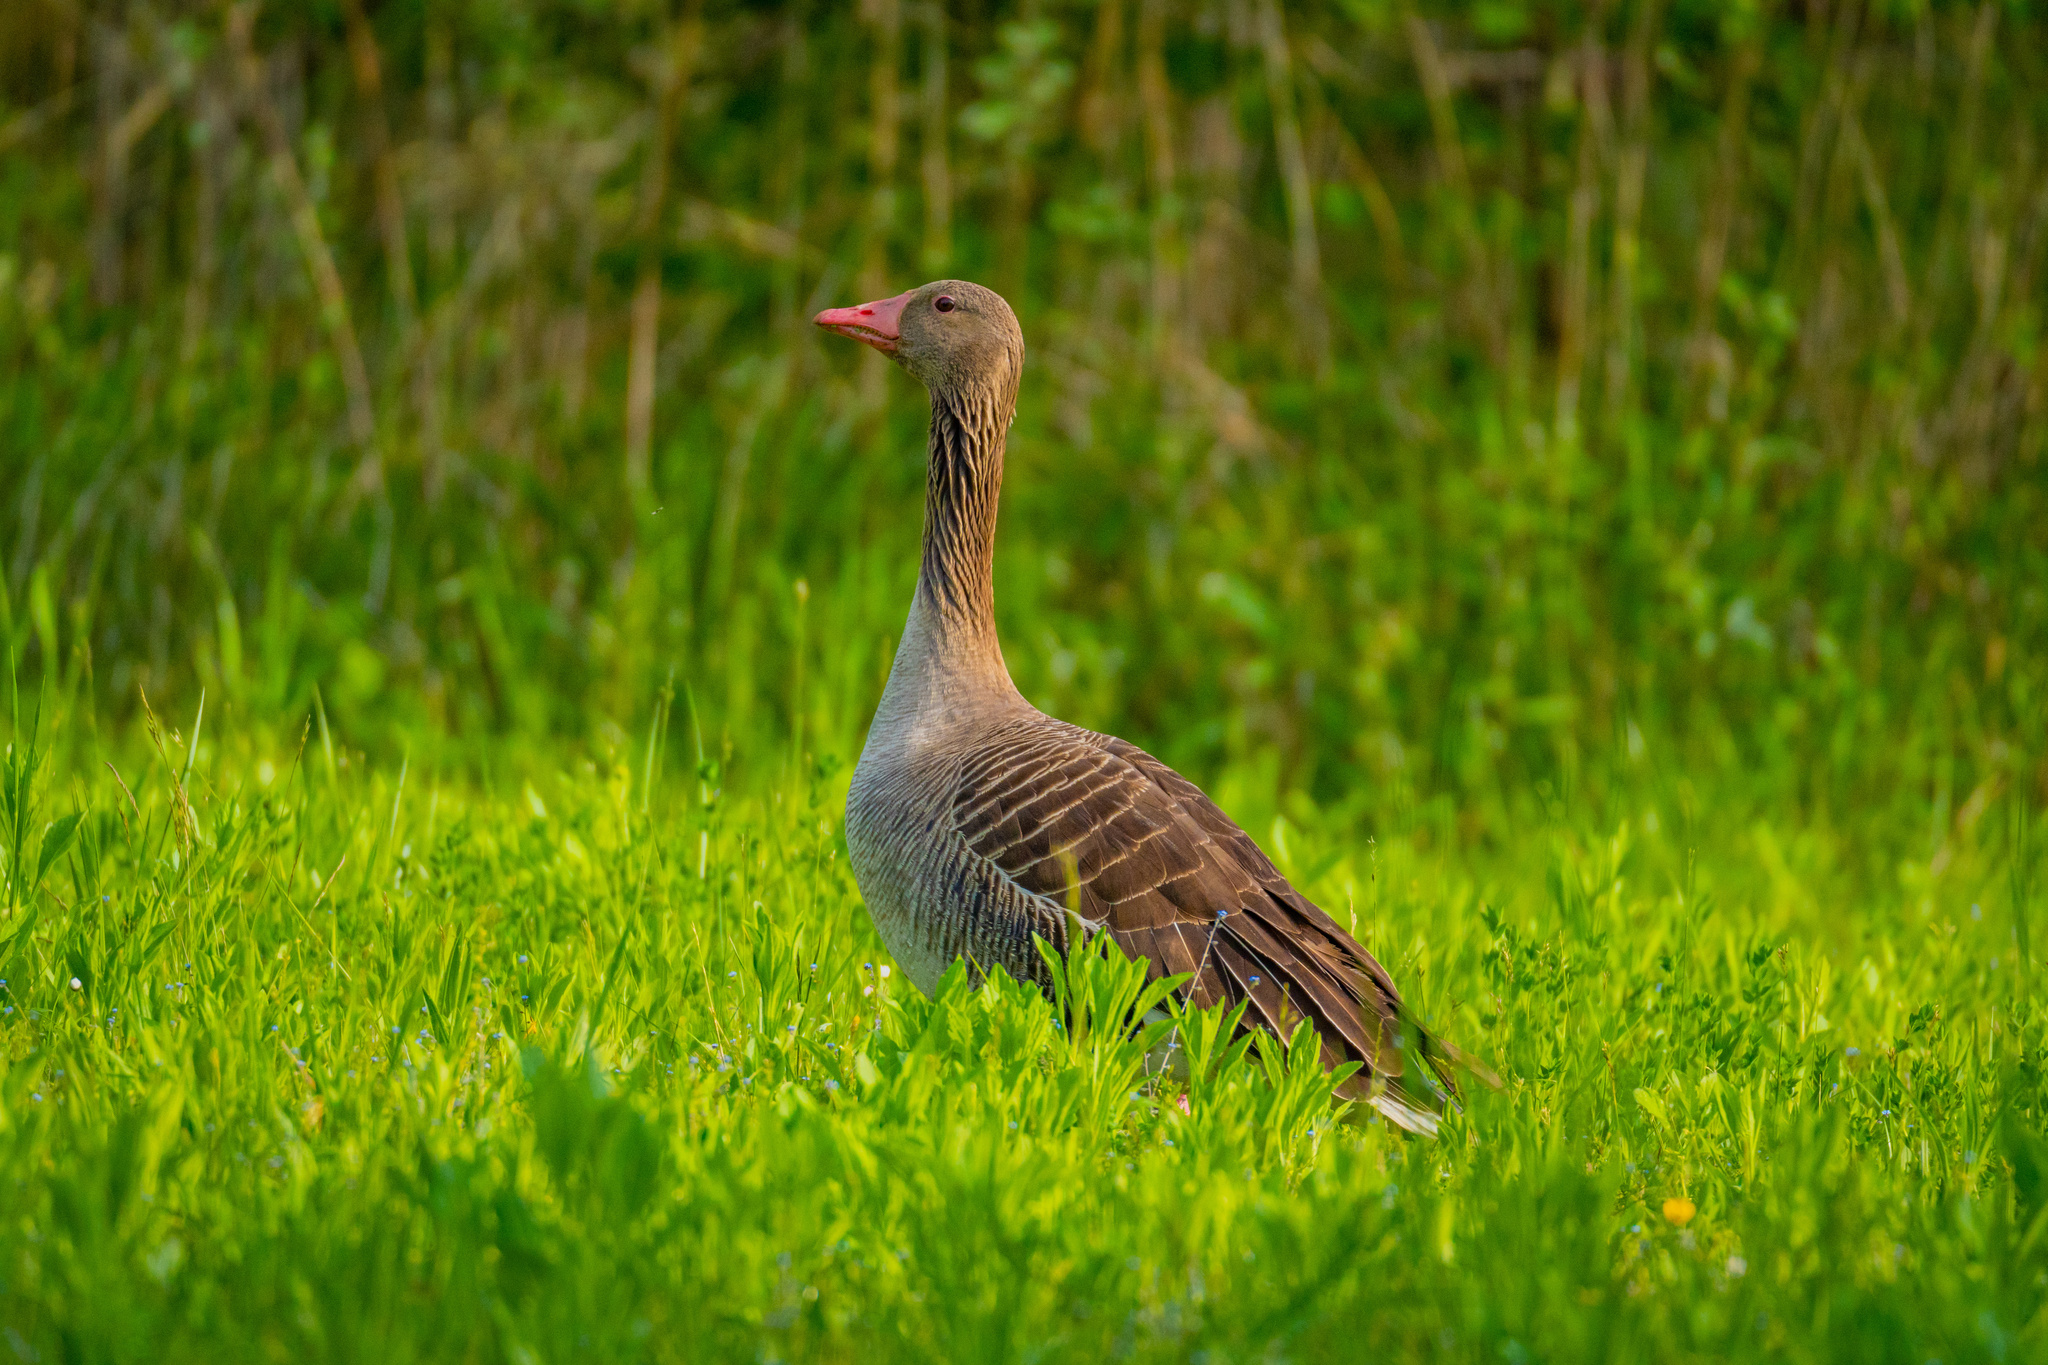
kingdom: Animalia
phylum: Chordata
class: Aves
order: Anseriformes
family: Anatidae
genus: Anser
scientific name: Anser anser
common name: Greylag goose
